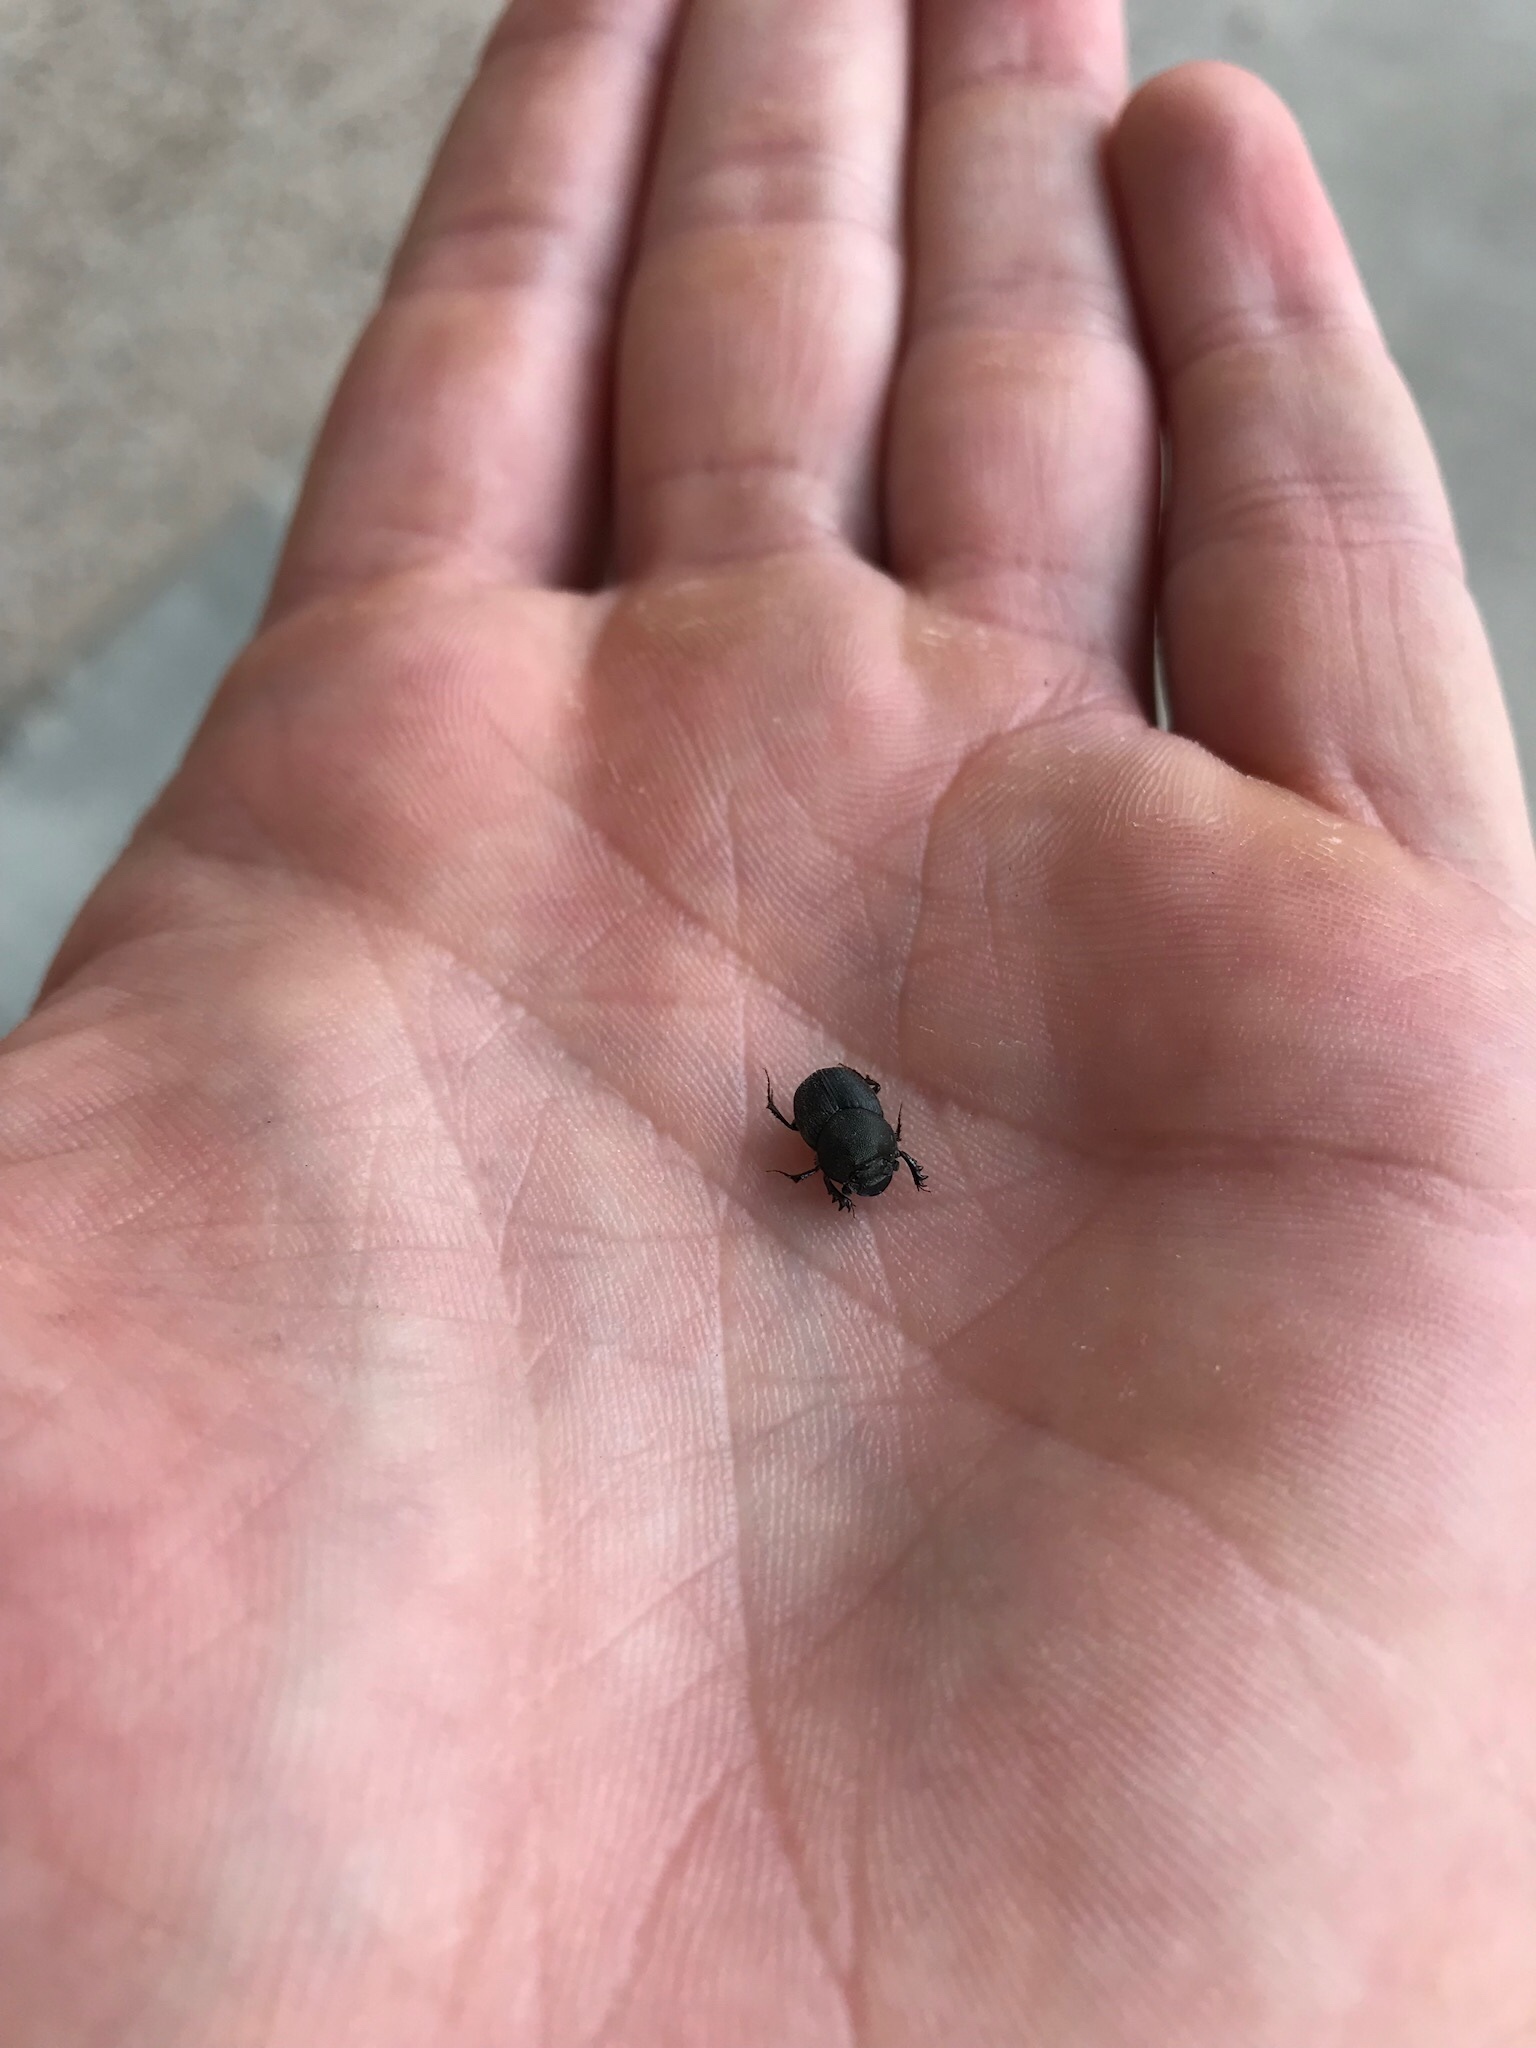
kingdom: Animalia
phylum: Arthropoda
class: Insecta
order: Coleoptera
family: Scarabaeidae
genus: Onthophagus
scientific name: Onthophagus hecate
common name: Scooped scarab
